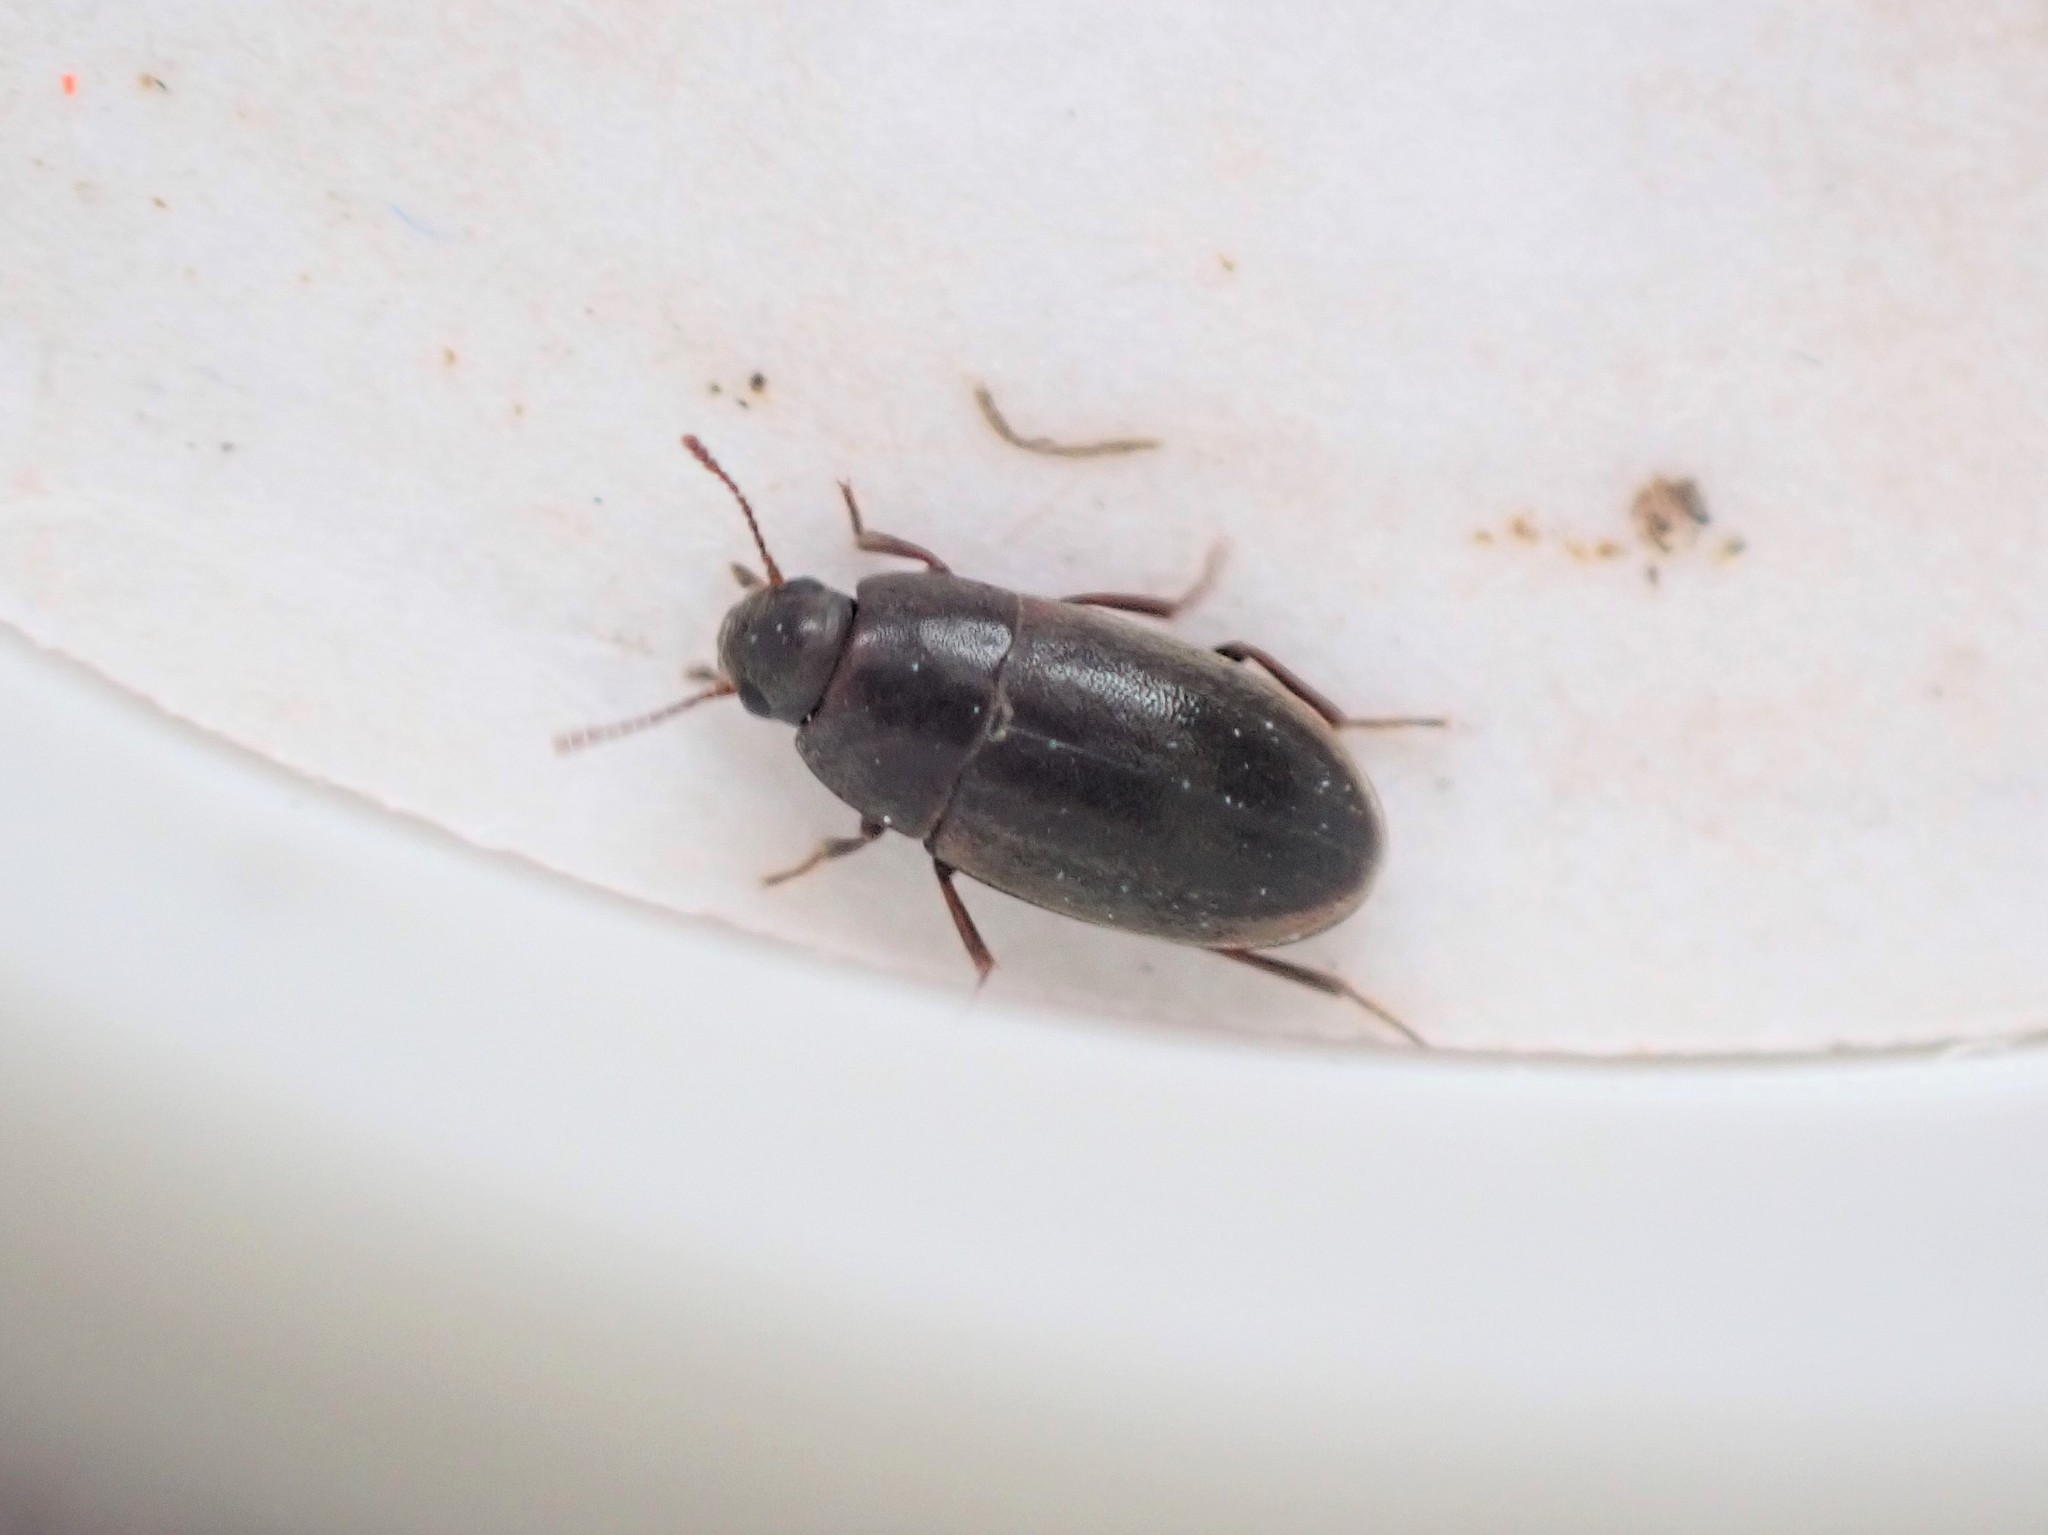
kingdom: Animalia
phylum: Arthropoda
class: Insecta
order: Coleoptera
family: Archeocrypticidae
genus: Enneboeus
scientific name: Enneboeus
